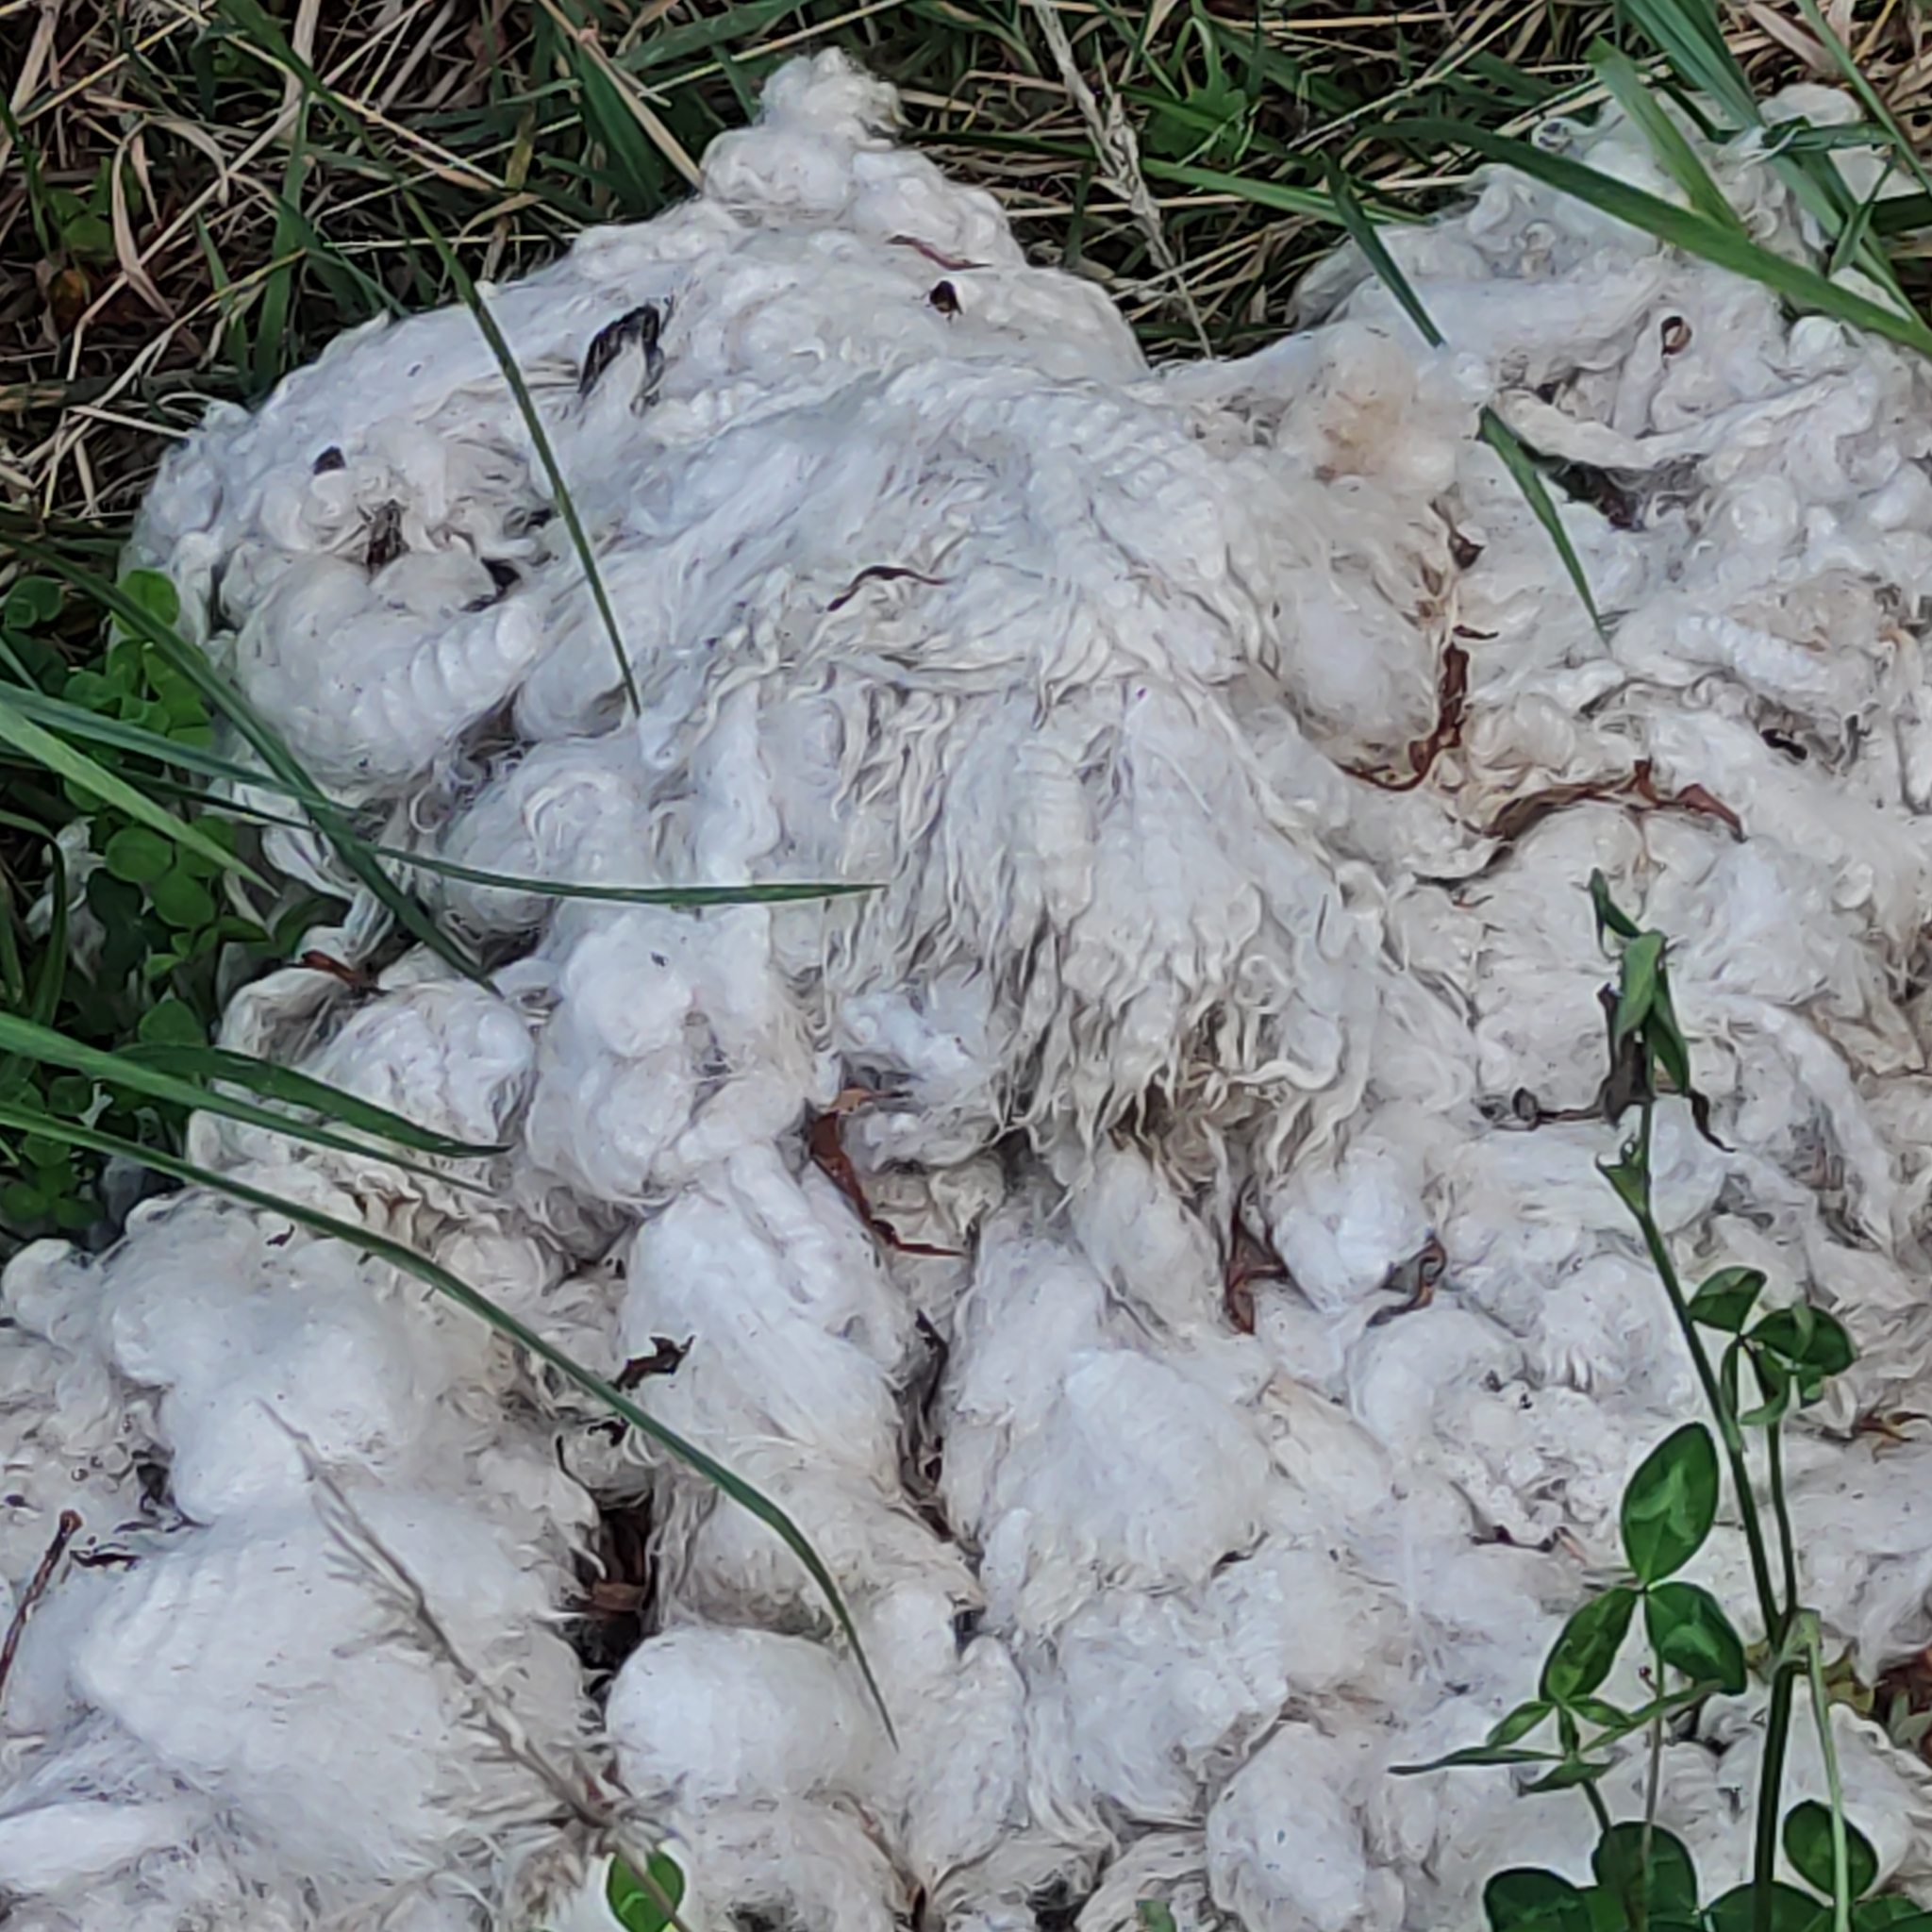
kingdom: Animalia
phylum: Chordata
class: Mammalia
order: Artiodactyla
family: Bovidae
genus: Ovis
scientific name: Ovis aries
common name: Domestic sheep
